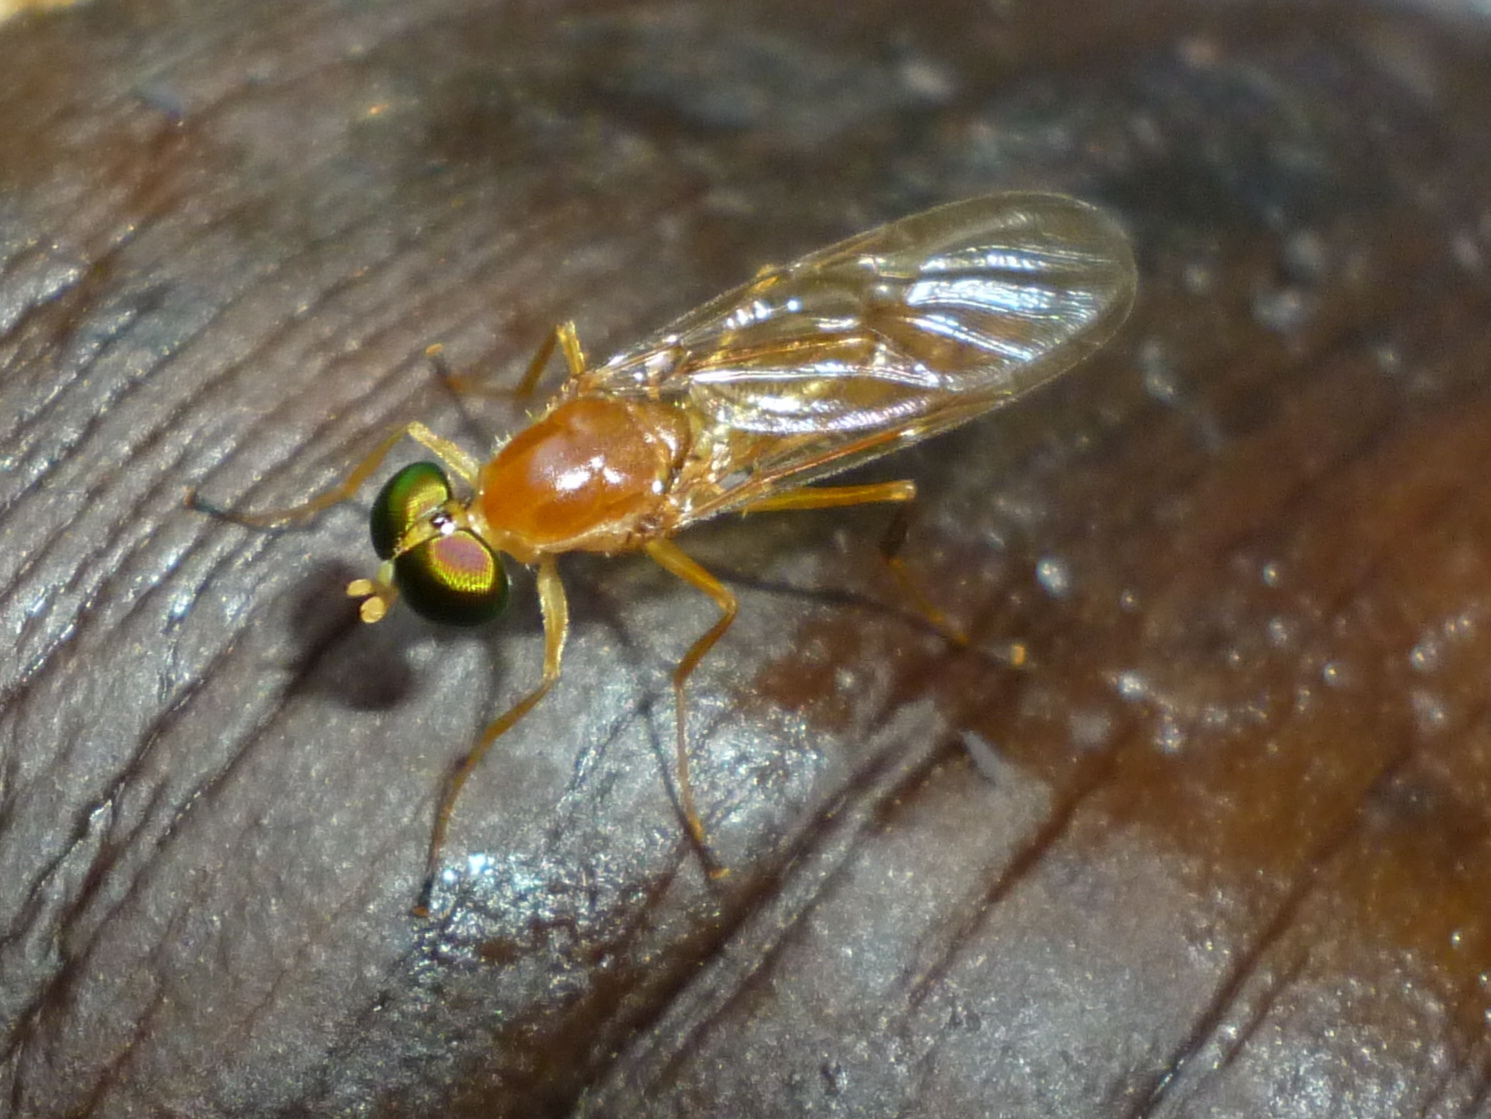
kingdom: Animalia
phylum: Arthropoda
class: Insecta
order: Diptera
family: Stratiomyidae
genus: Ptecticus
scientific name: Ptecticus trivittatus
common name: Compost fly
